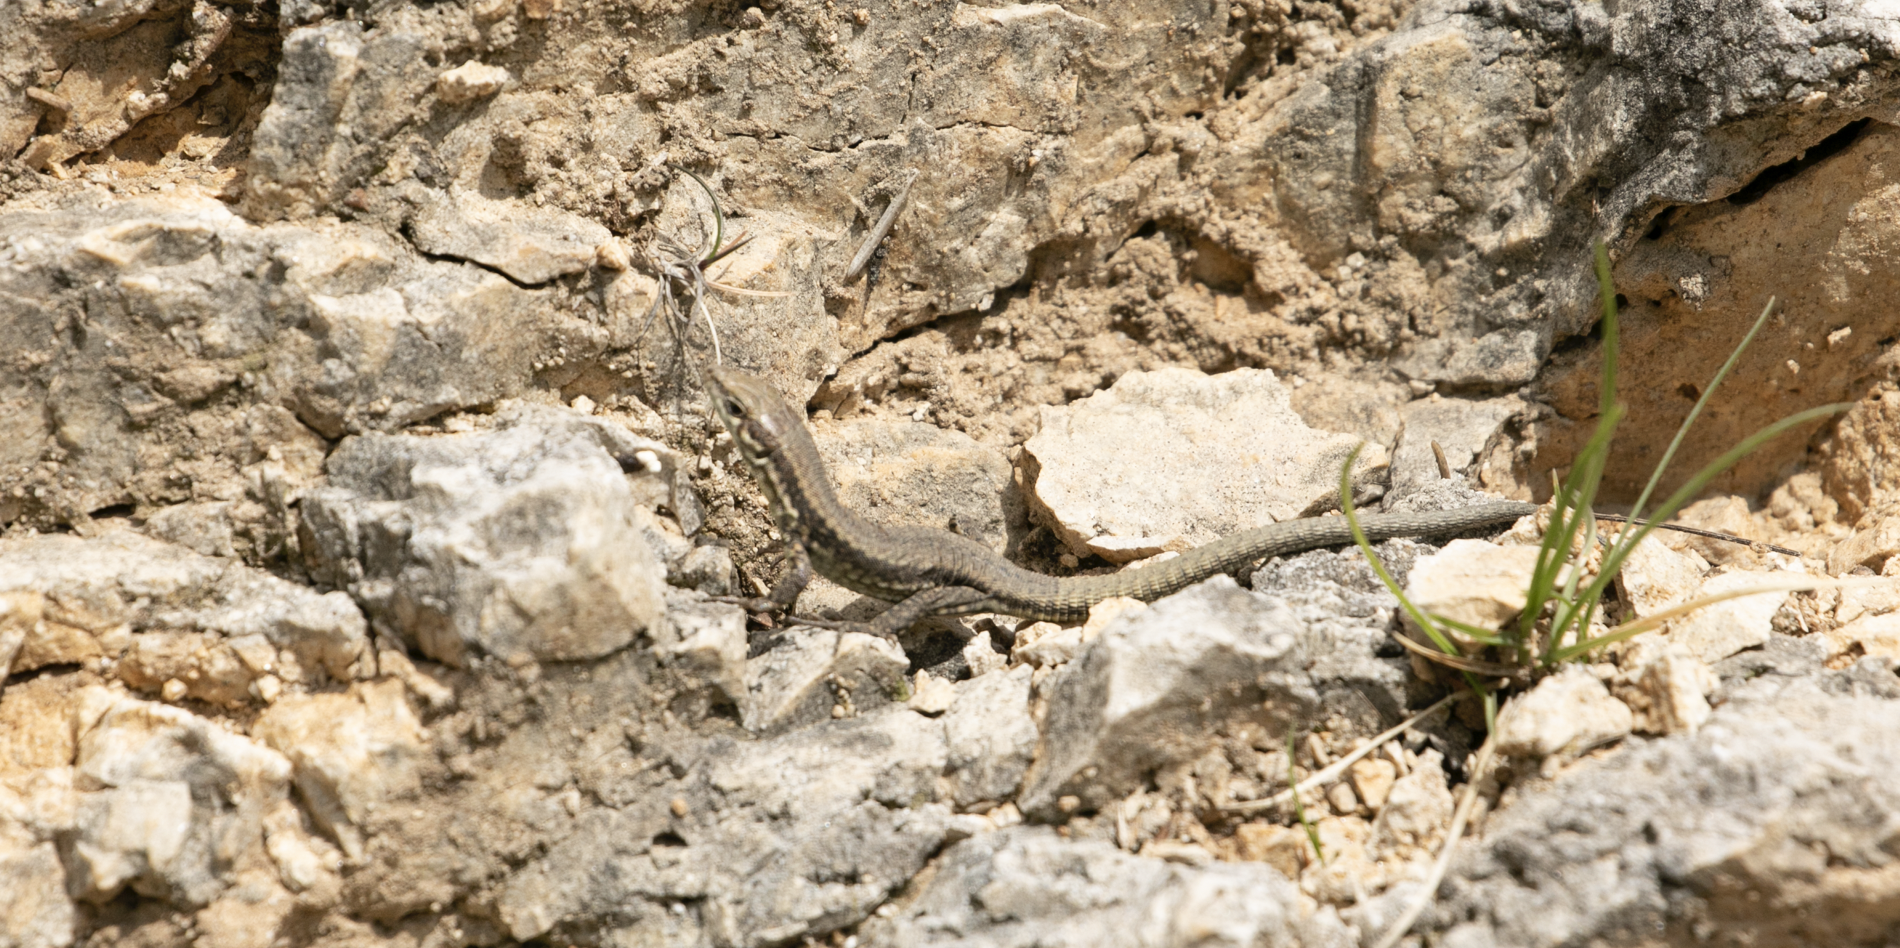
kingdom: Animalia
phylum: Chordata
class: Squamata
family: Lacertidae
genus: Podarcis
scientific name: Podarcis muralis
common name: Common wall lizard
